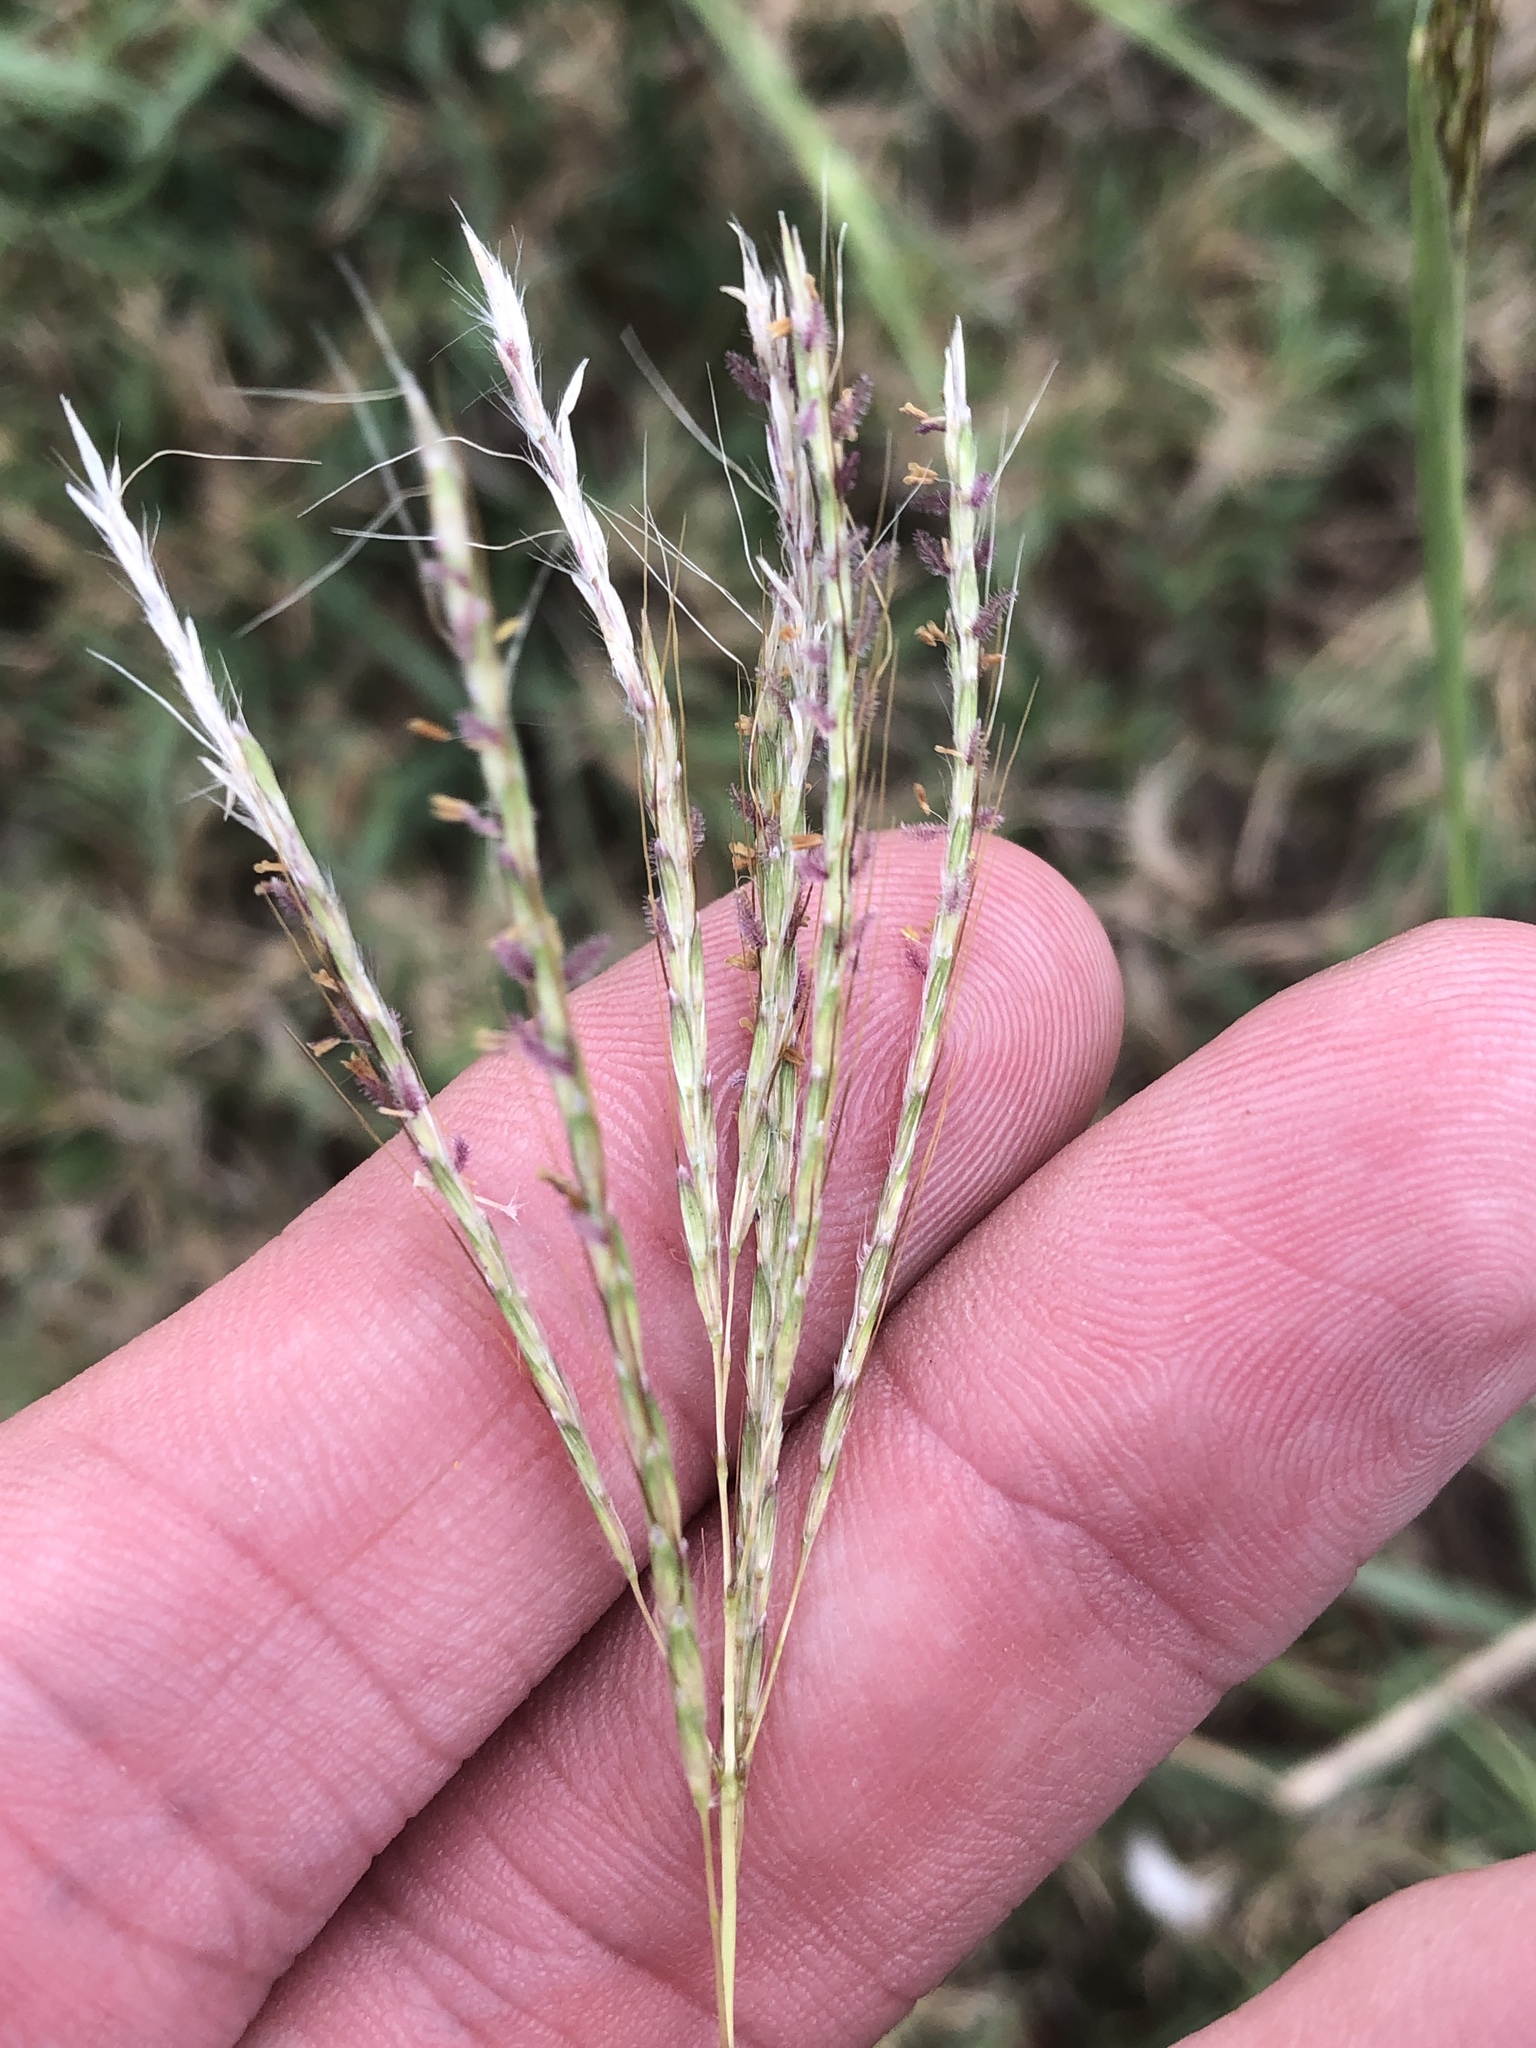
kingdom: Plantae
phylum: Tracheophyta
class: Liliopsida
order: Poales
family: Poaceae
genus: Bothriochloa
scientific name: Bothriochloa ischaemum
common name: Yellow bluestem
